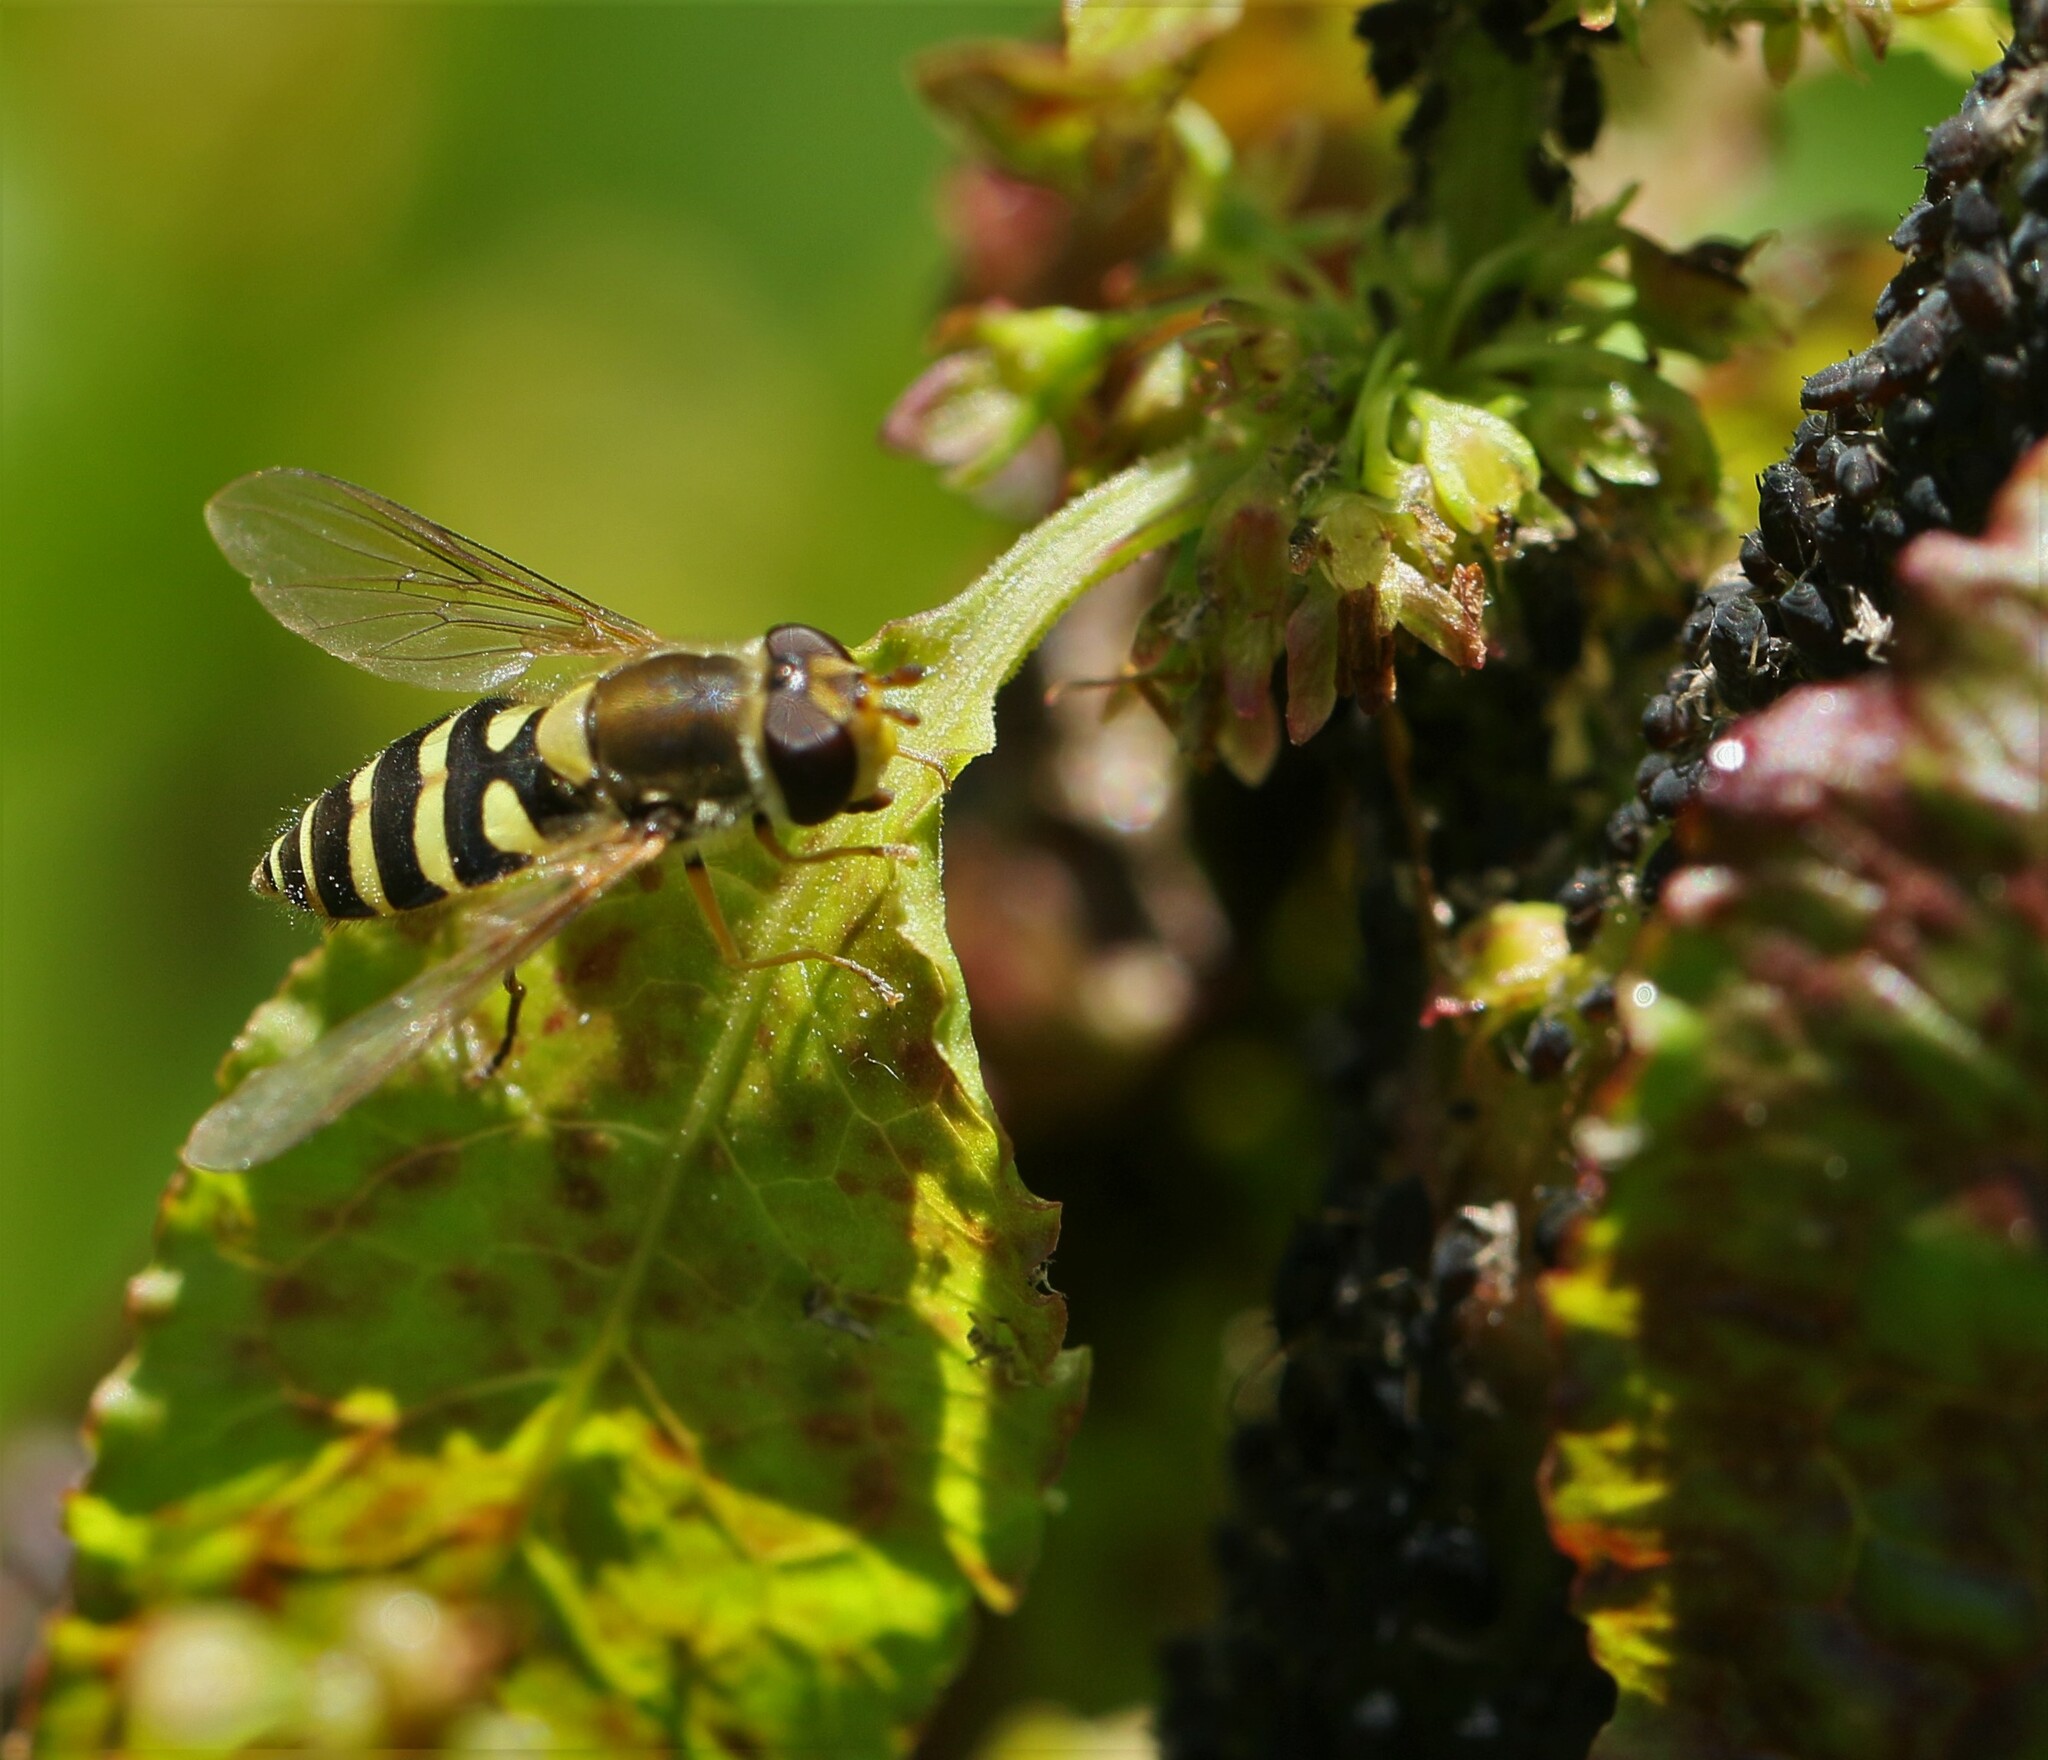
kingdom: Animalia
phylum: Arthropoda
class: Insecta
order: Diptera
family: Syrphidae
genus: Syrphus
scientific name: Syrphus
